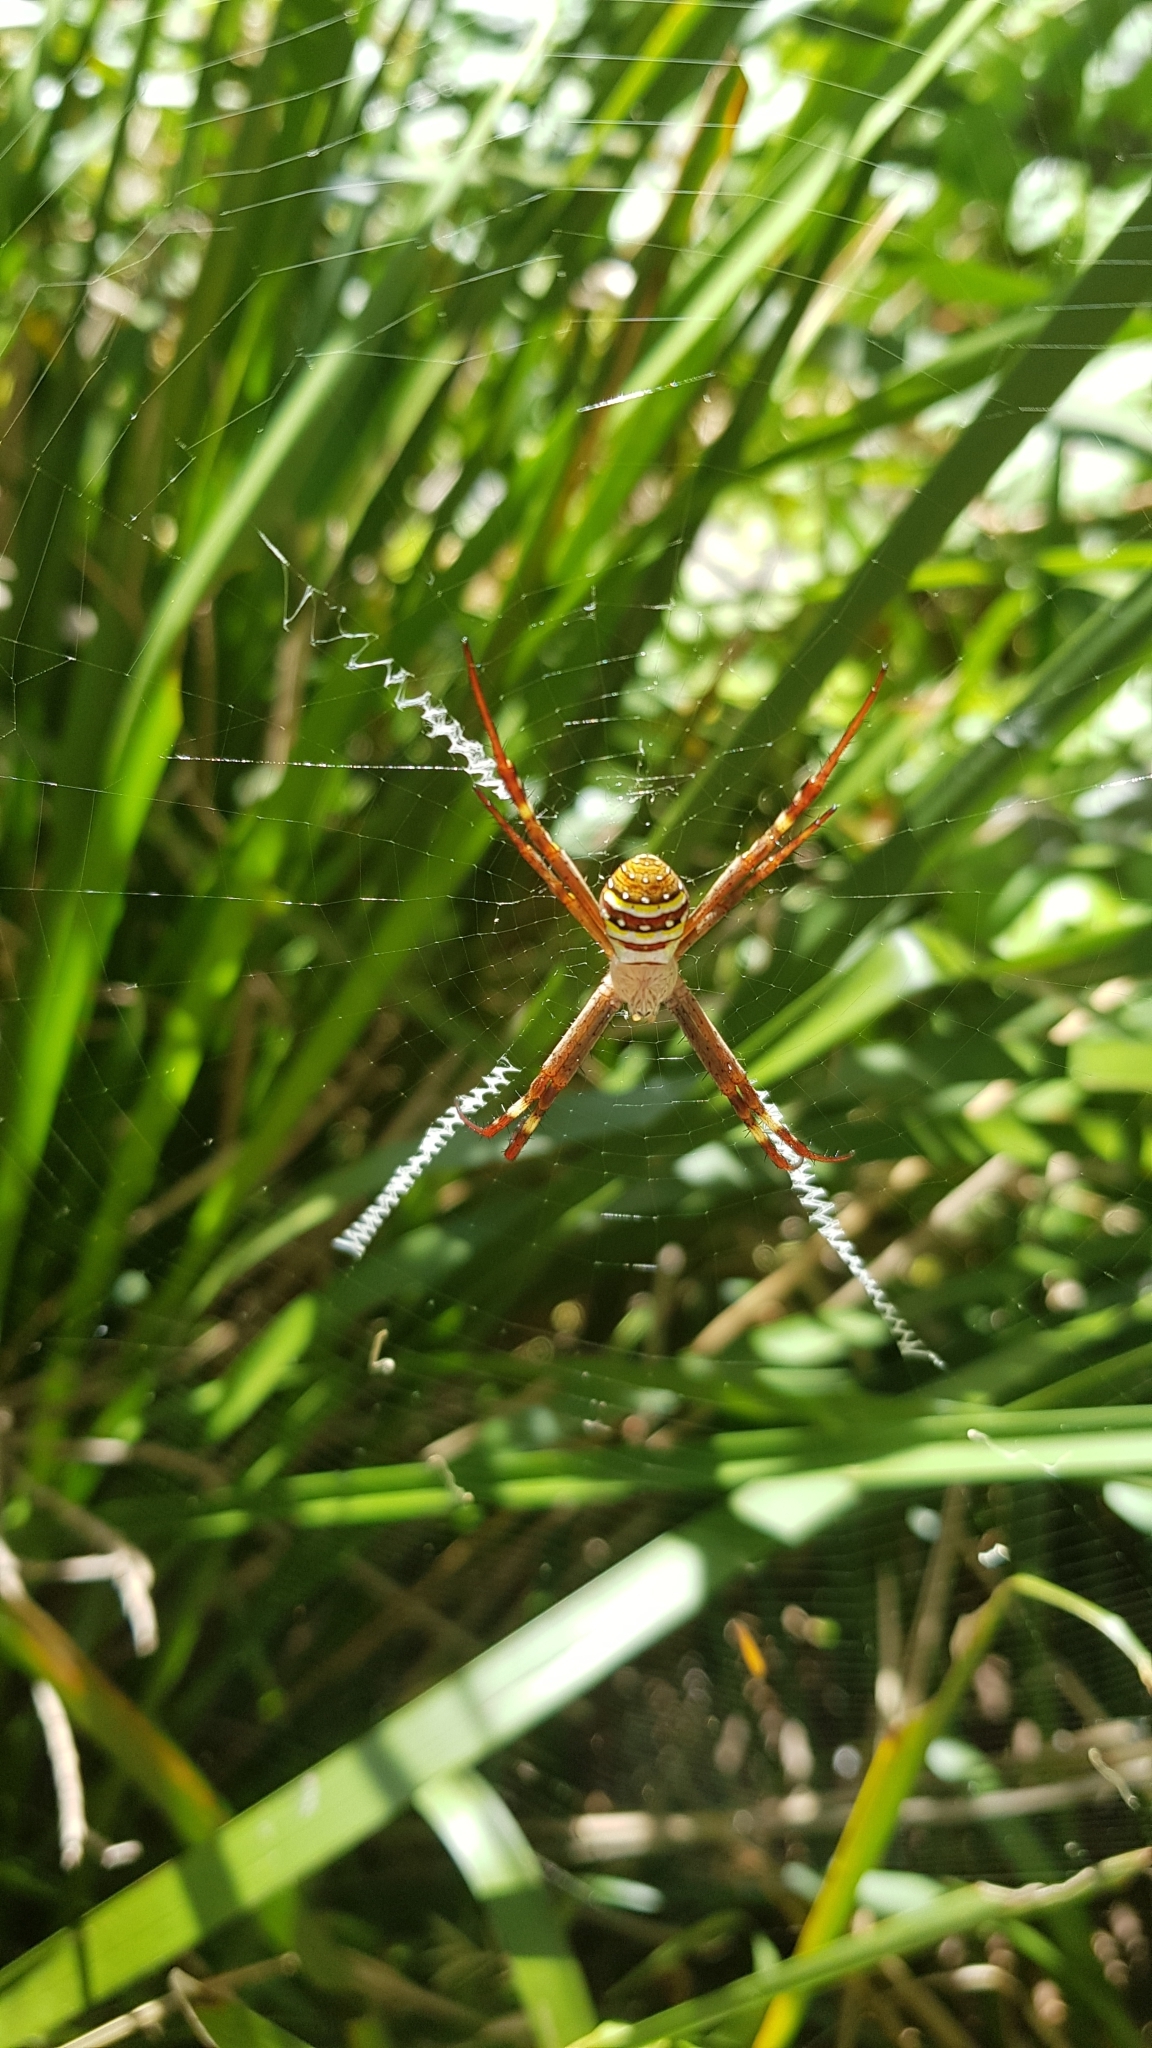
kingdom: Animalia
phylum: Arthropoda
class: Arachnida
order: Araneae
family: Araneidae
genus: Argiope
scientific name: Argiope keyserlingi
